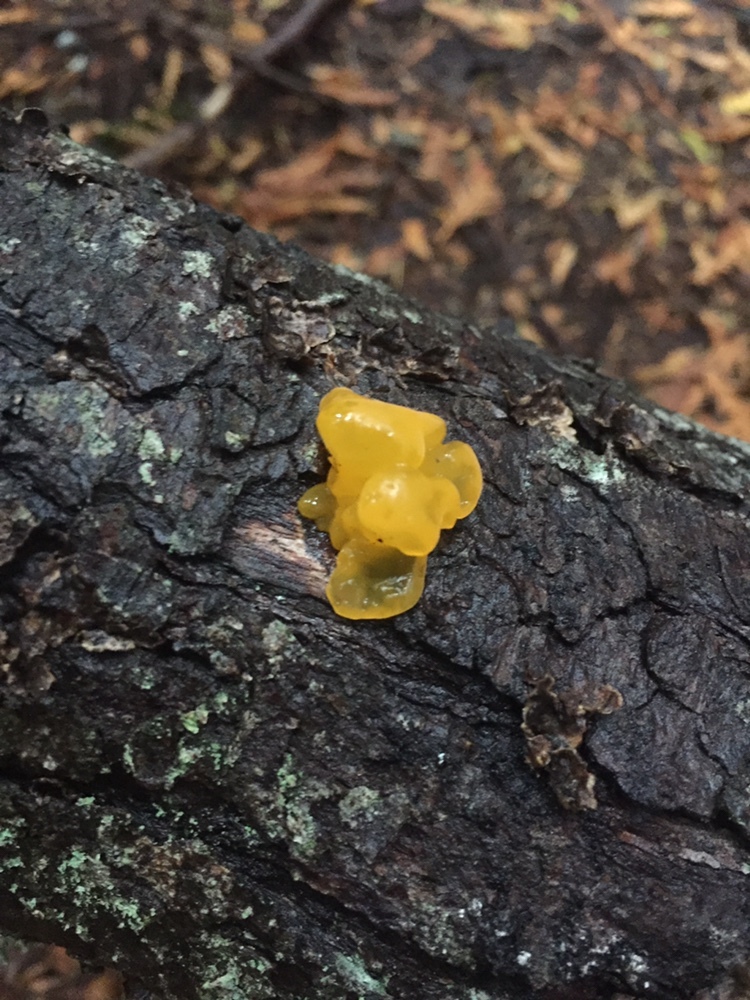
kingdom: Fungi
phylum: Basidiomycota
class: Dacrymycetes
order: Dacrymycetales
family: Dacrymycetaceae
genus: Dacrymyces
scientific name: Dacrymyces chrysospermus
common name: Orange jelly spot
